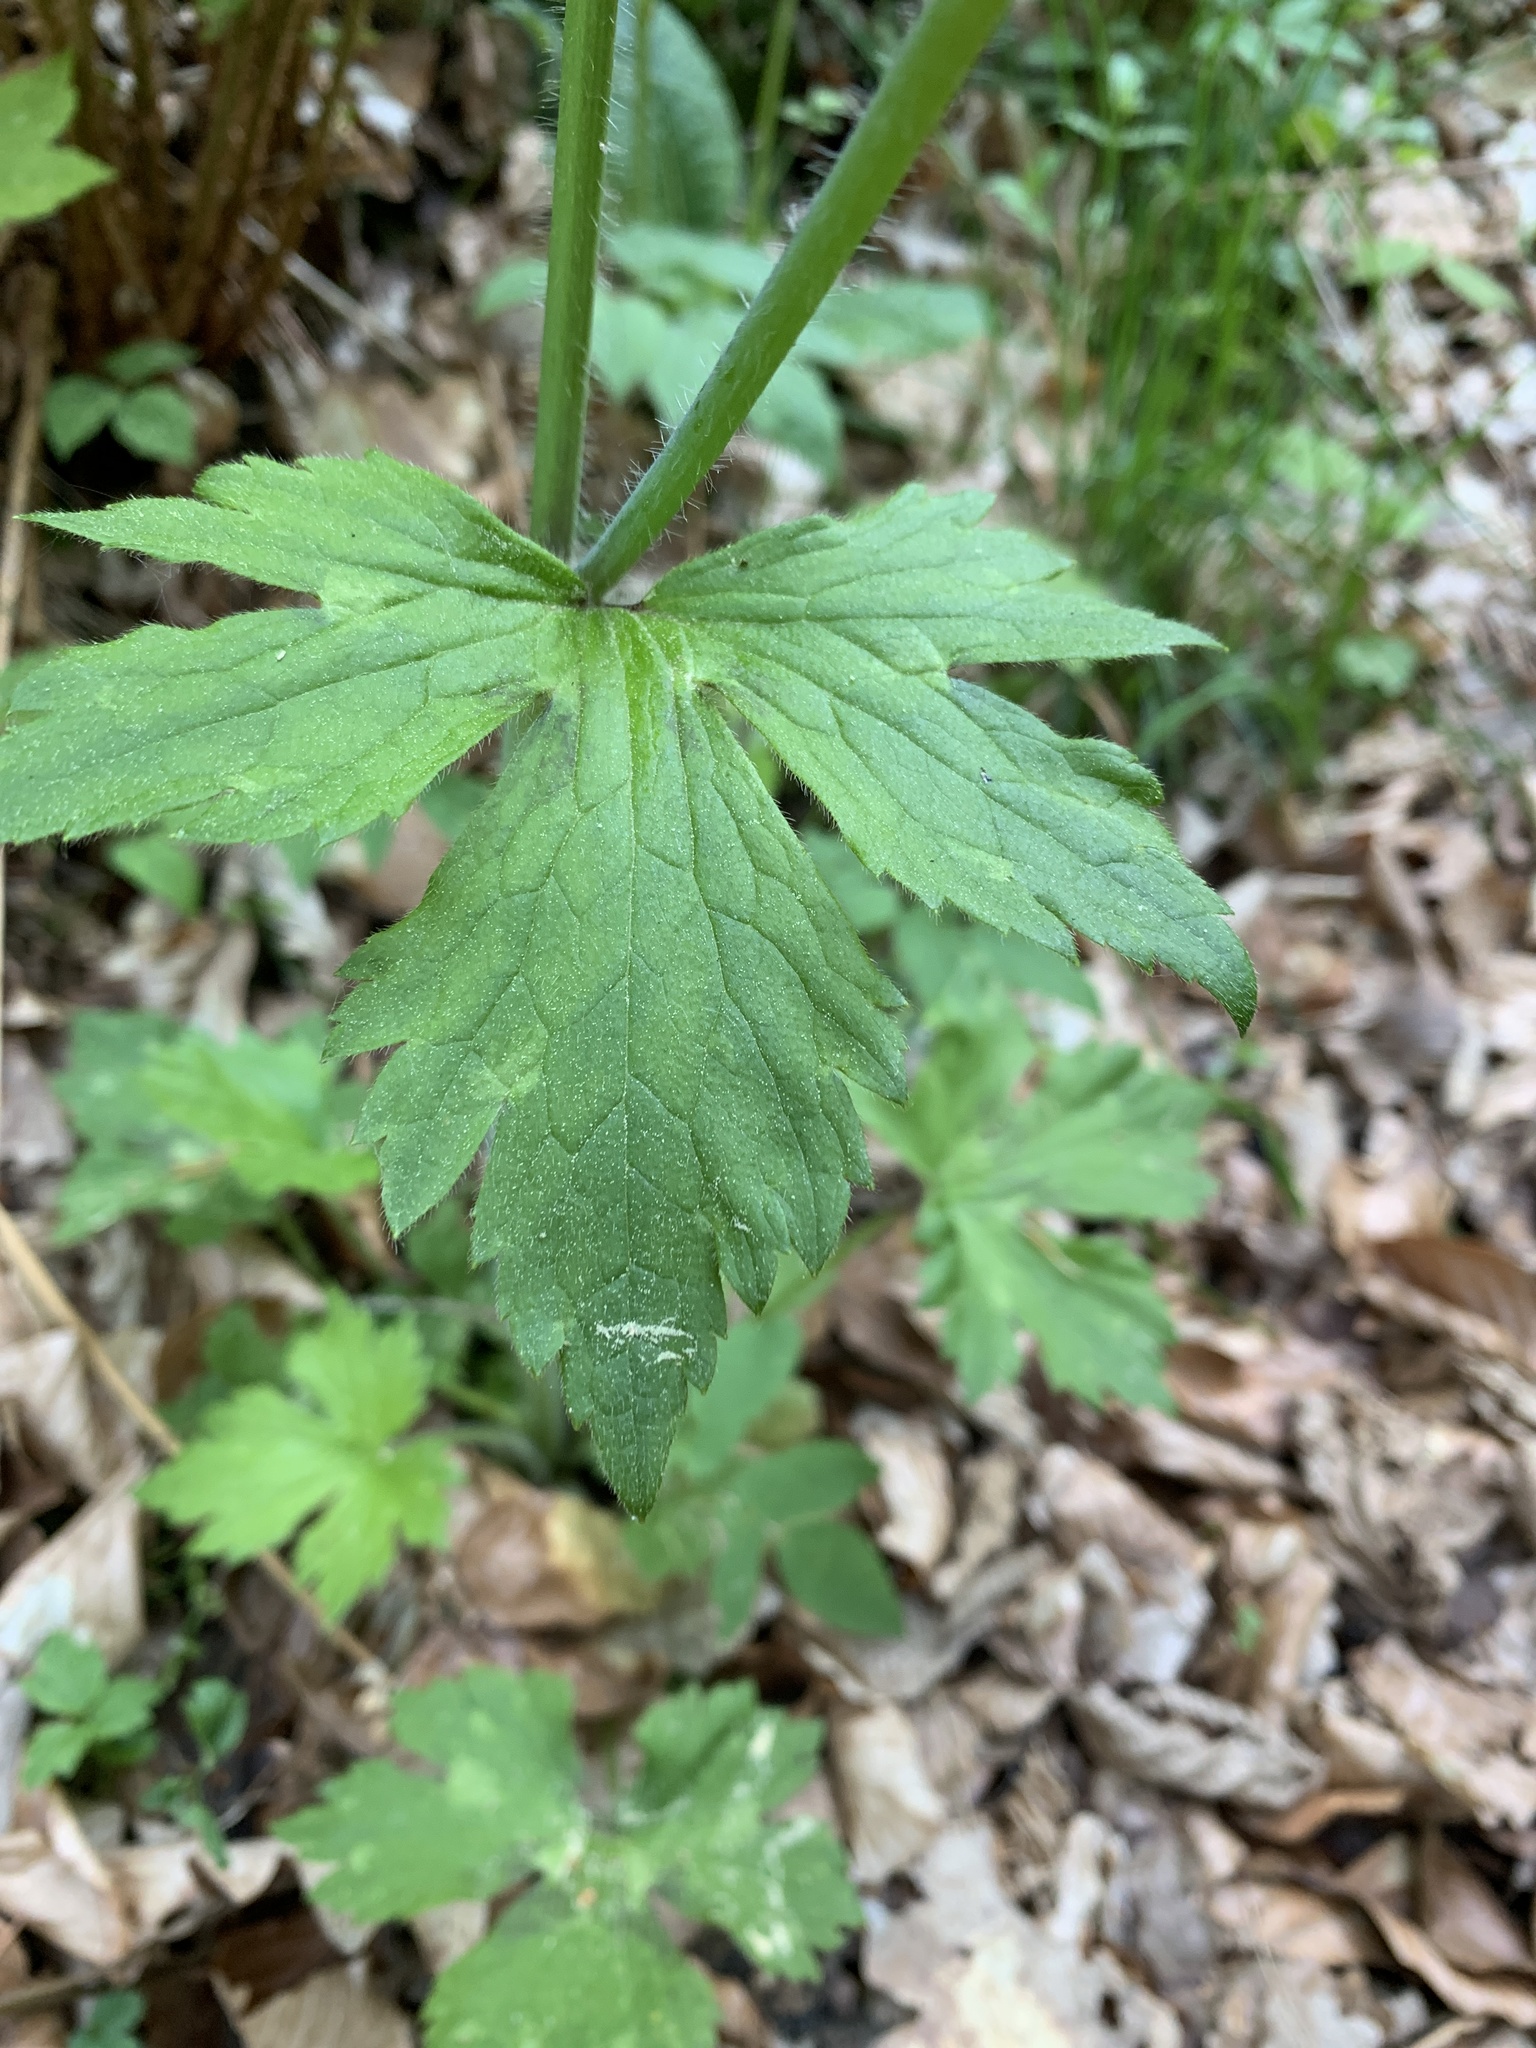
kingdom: Plantae
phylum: Tracheophyta
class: Magnoliopsida
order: Ranunculales
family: Ranunculaceae
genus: Ranunculus
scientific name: Ranunculus lanuginosus
